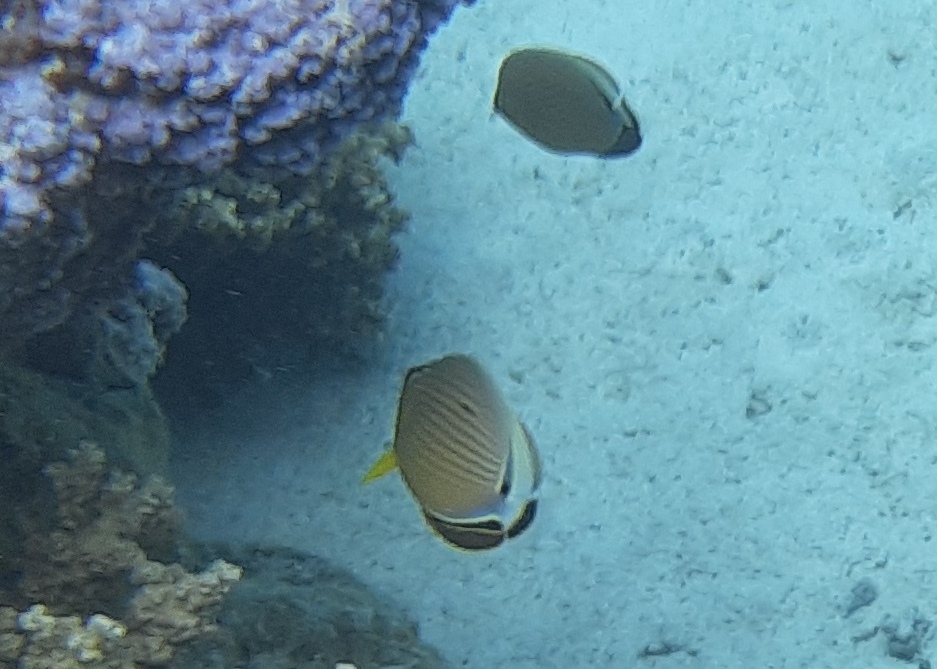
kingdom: Animalia
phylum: Chordata
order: Perciformes
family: Chaetodontidae
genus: Chaetodon
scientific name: Chaetodon lunulatus
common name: Redfin butterflyfish
